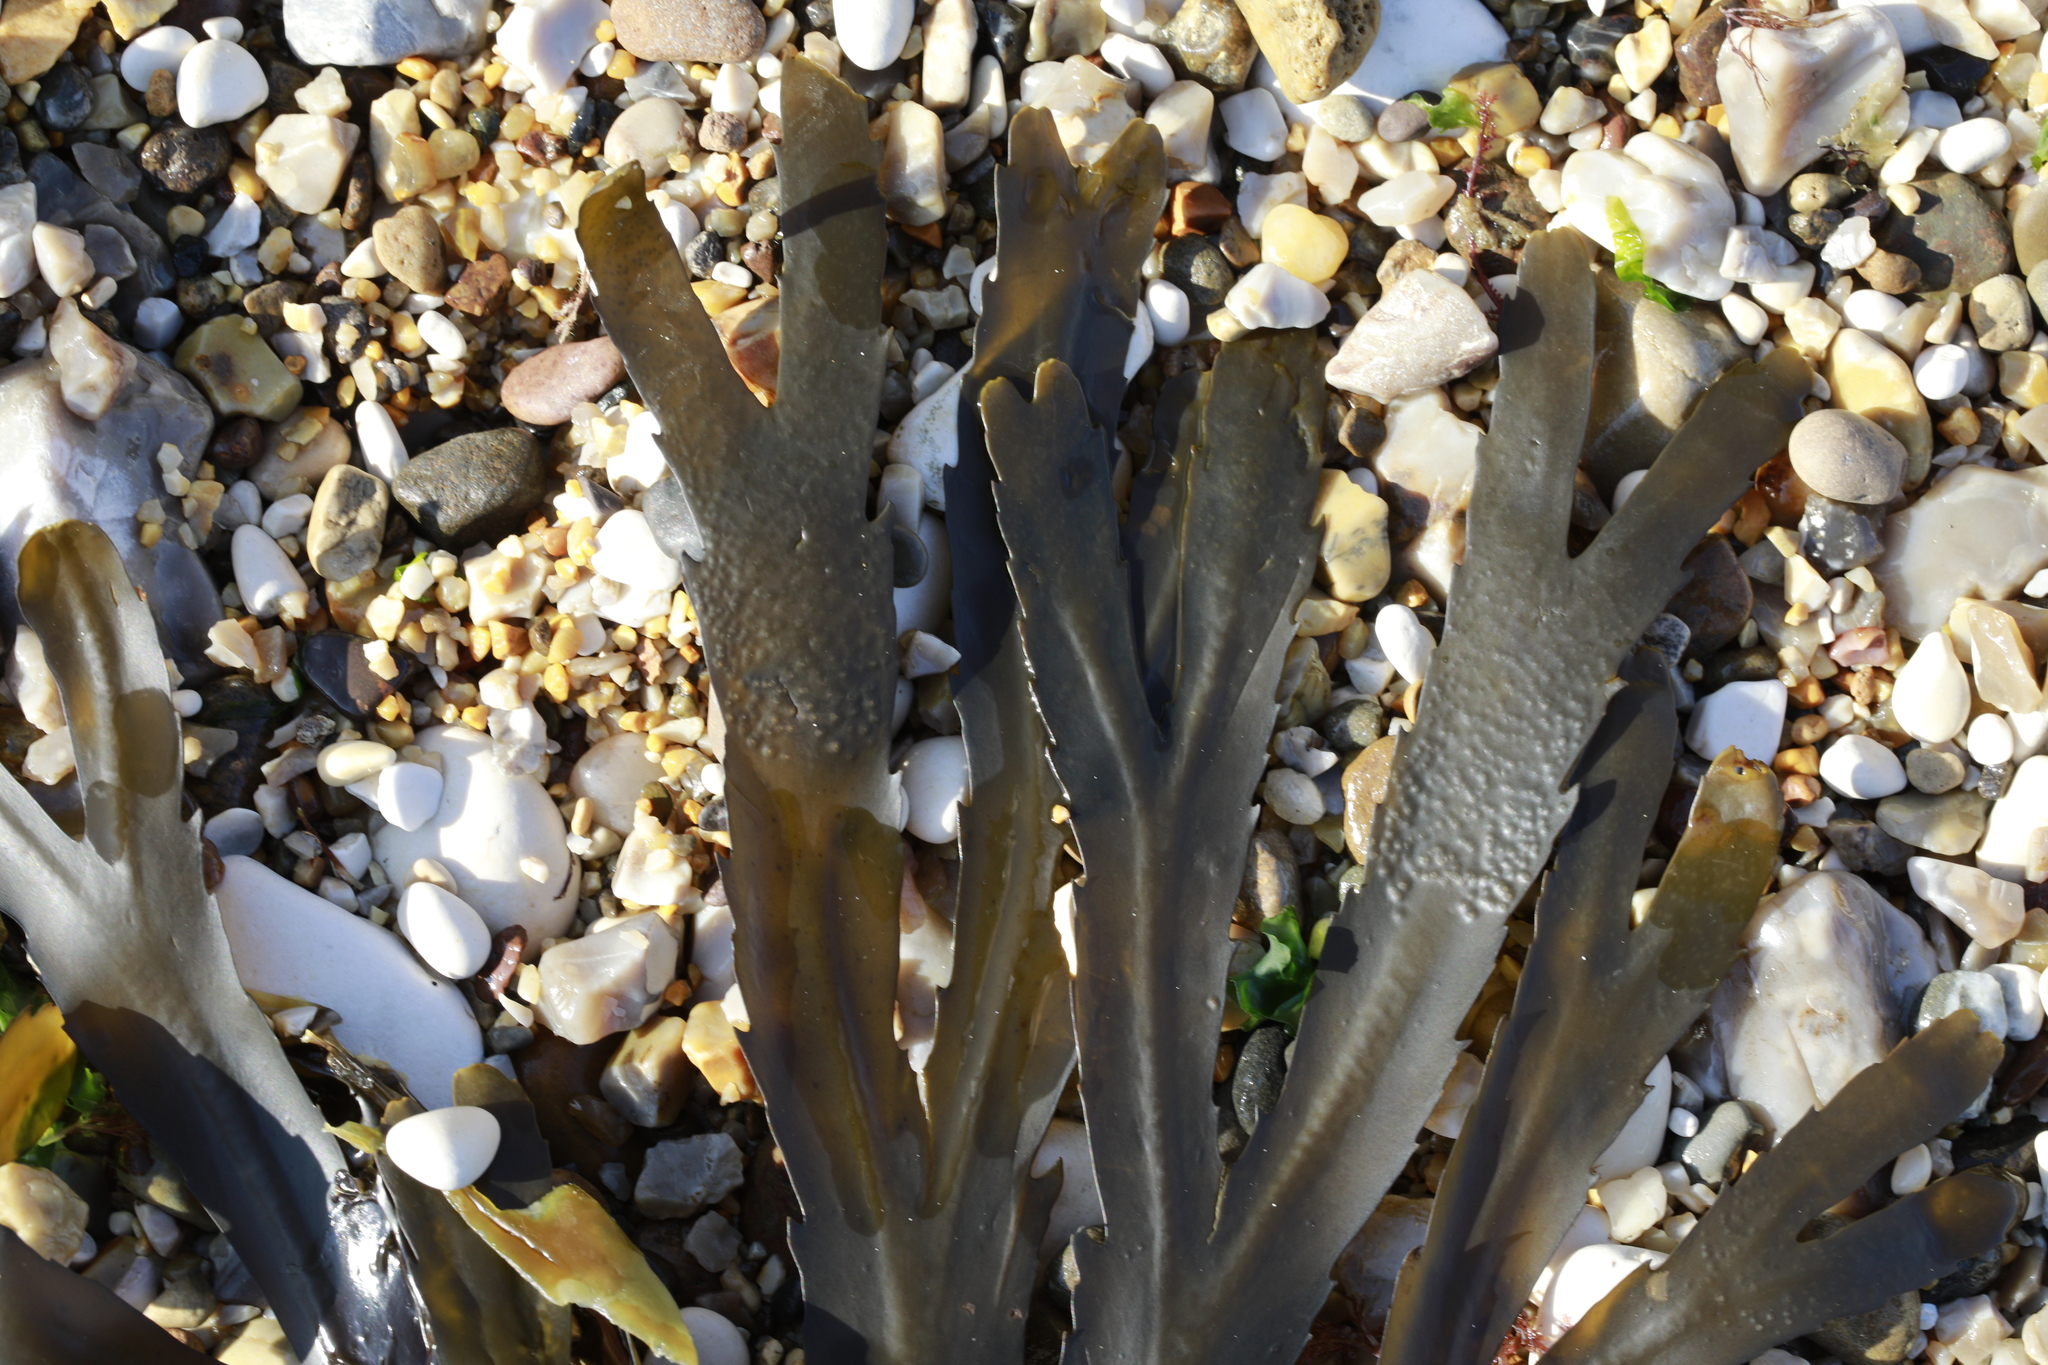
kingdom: Chromista
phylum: Ochrophyta
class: Phaeophyceae
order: Fucales
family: Fucaceae
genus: Fucus
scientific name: Fucus serratus
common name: Toothed wrack
